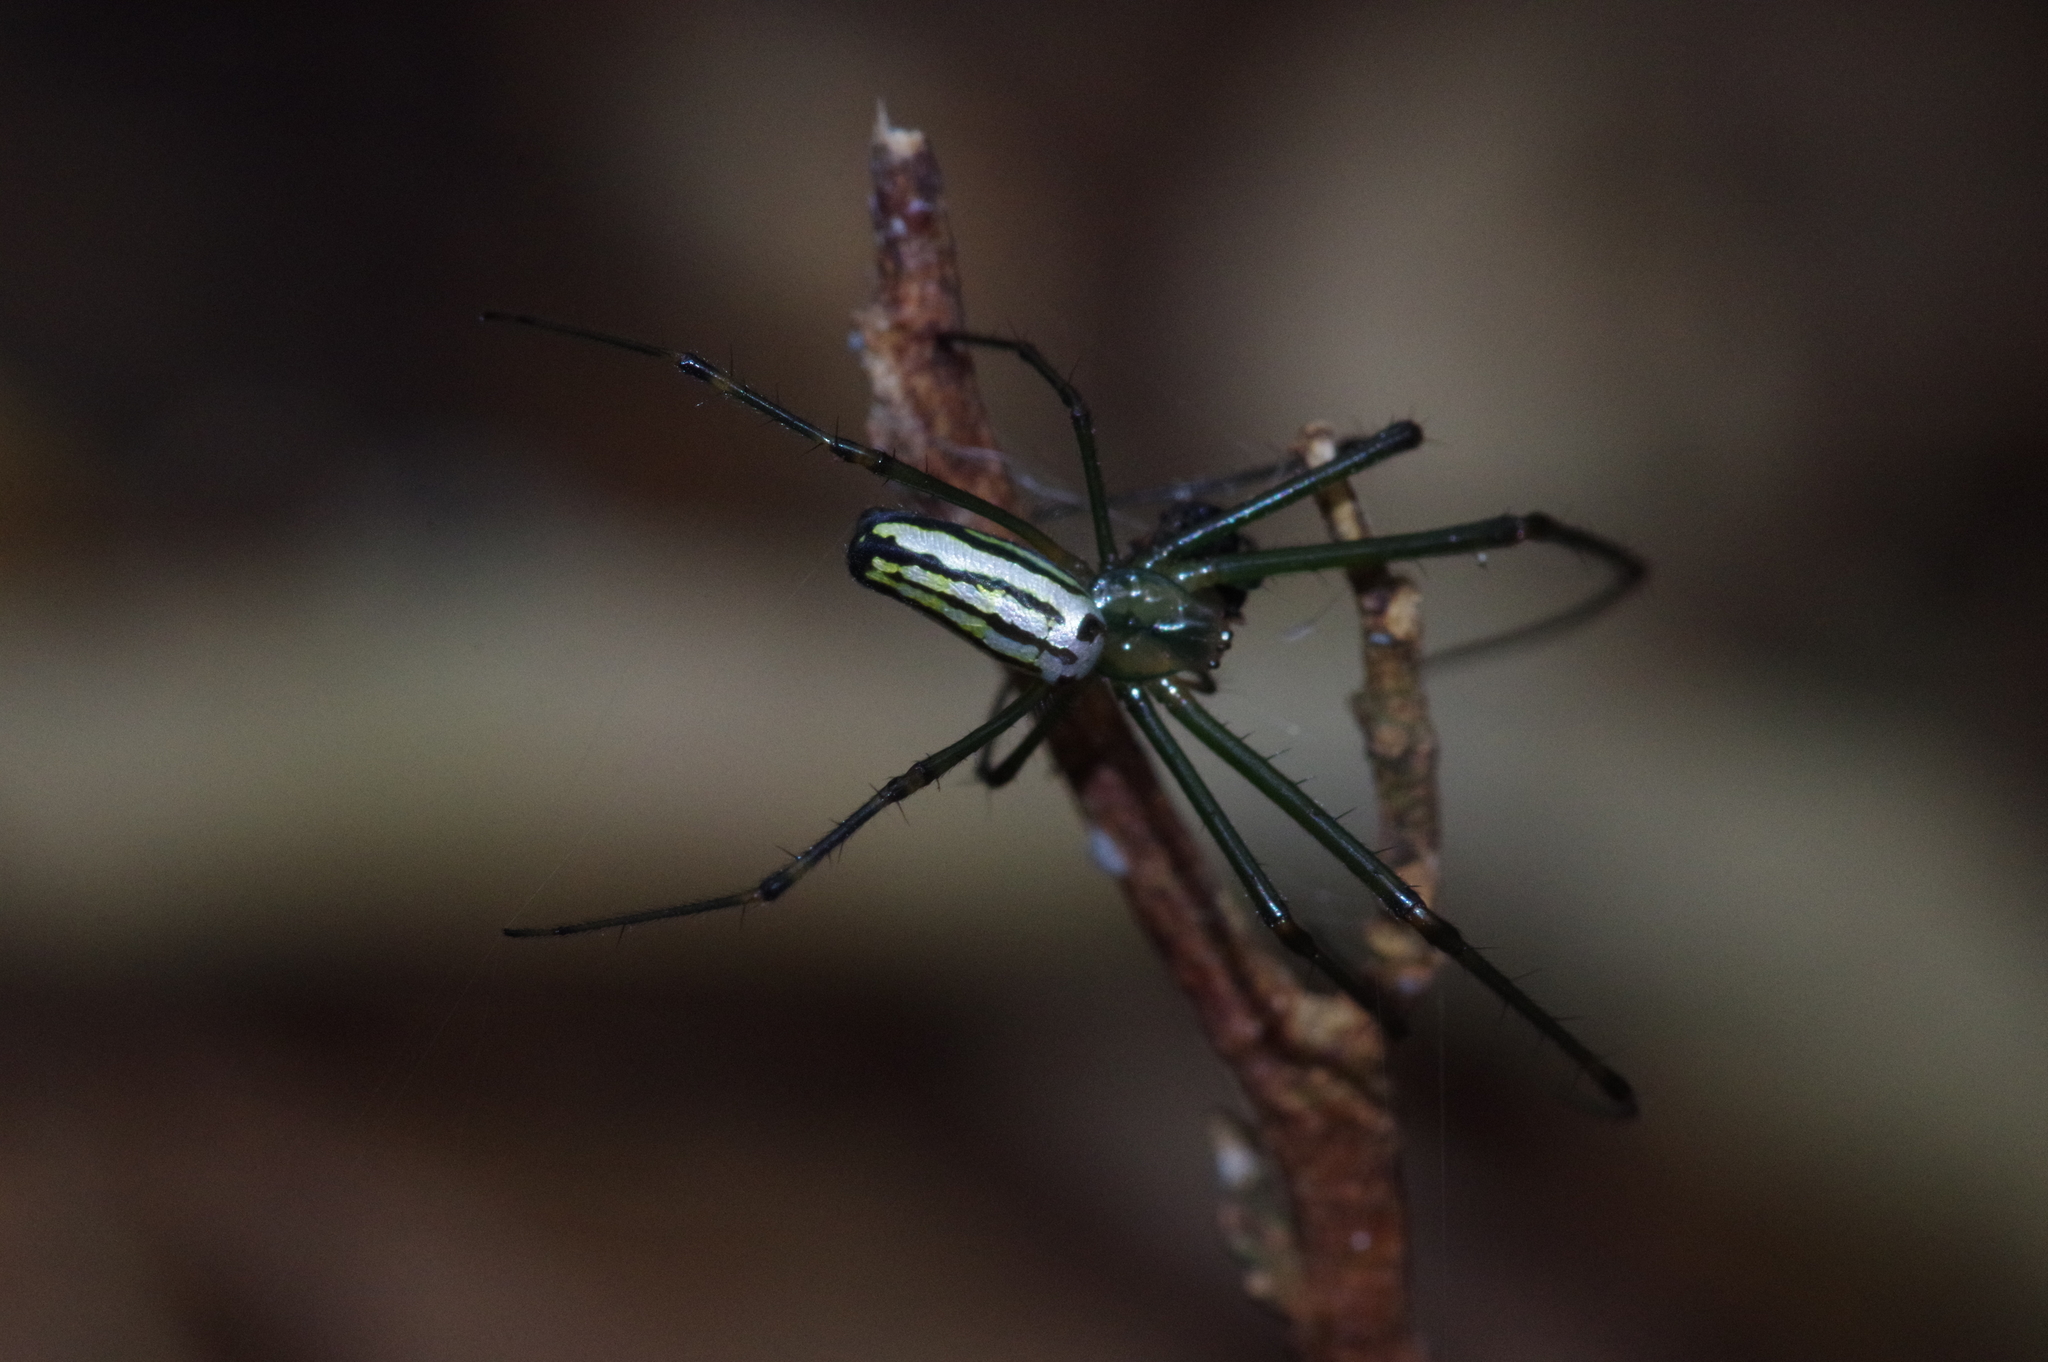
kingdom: Animalia
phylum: Arthropoda
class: Arachnida
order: Araneae
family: Tetragnathidae
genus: Leucauge
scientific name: Leucauge blanda
